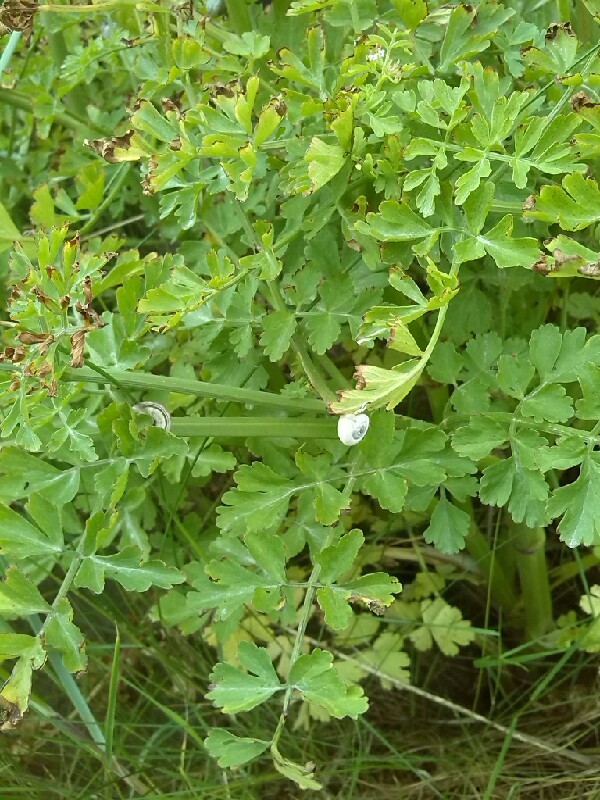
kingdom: Plantae
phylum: Tracheophyta
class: Magnoliopsida
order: Apiales
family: Apiaceae
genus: Oenanthe
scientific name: Oenanthe crocata
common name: Hemlock water-dropwort
